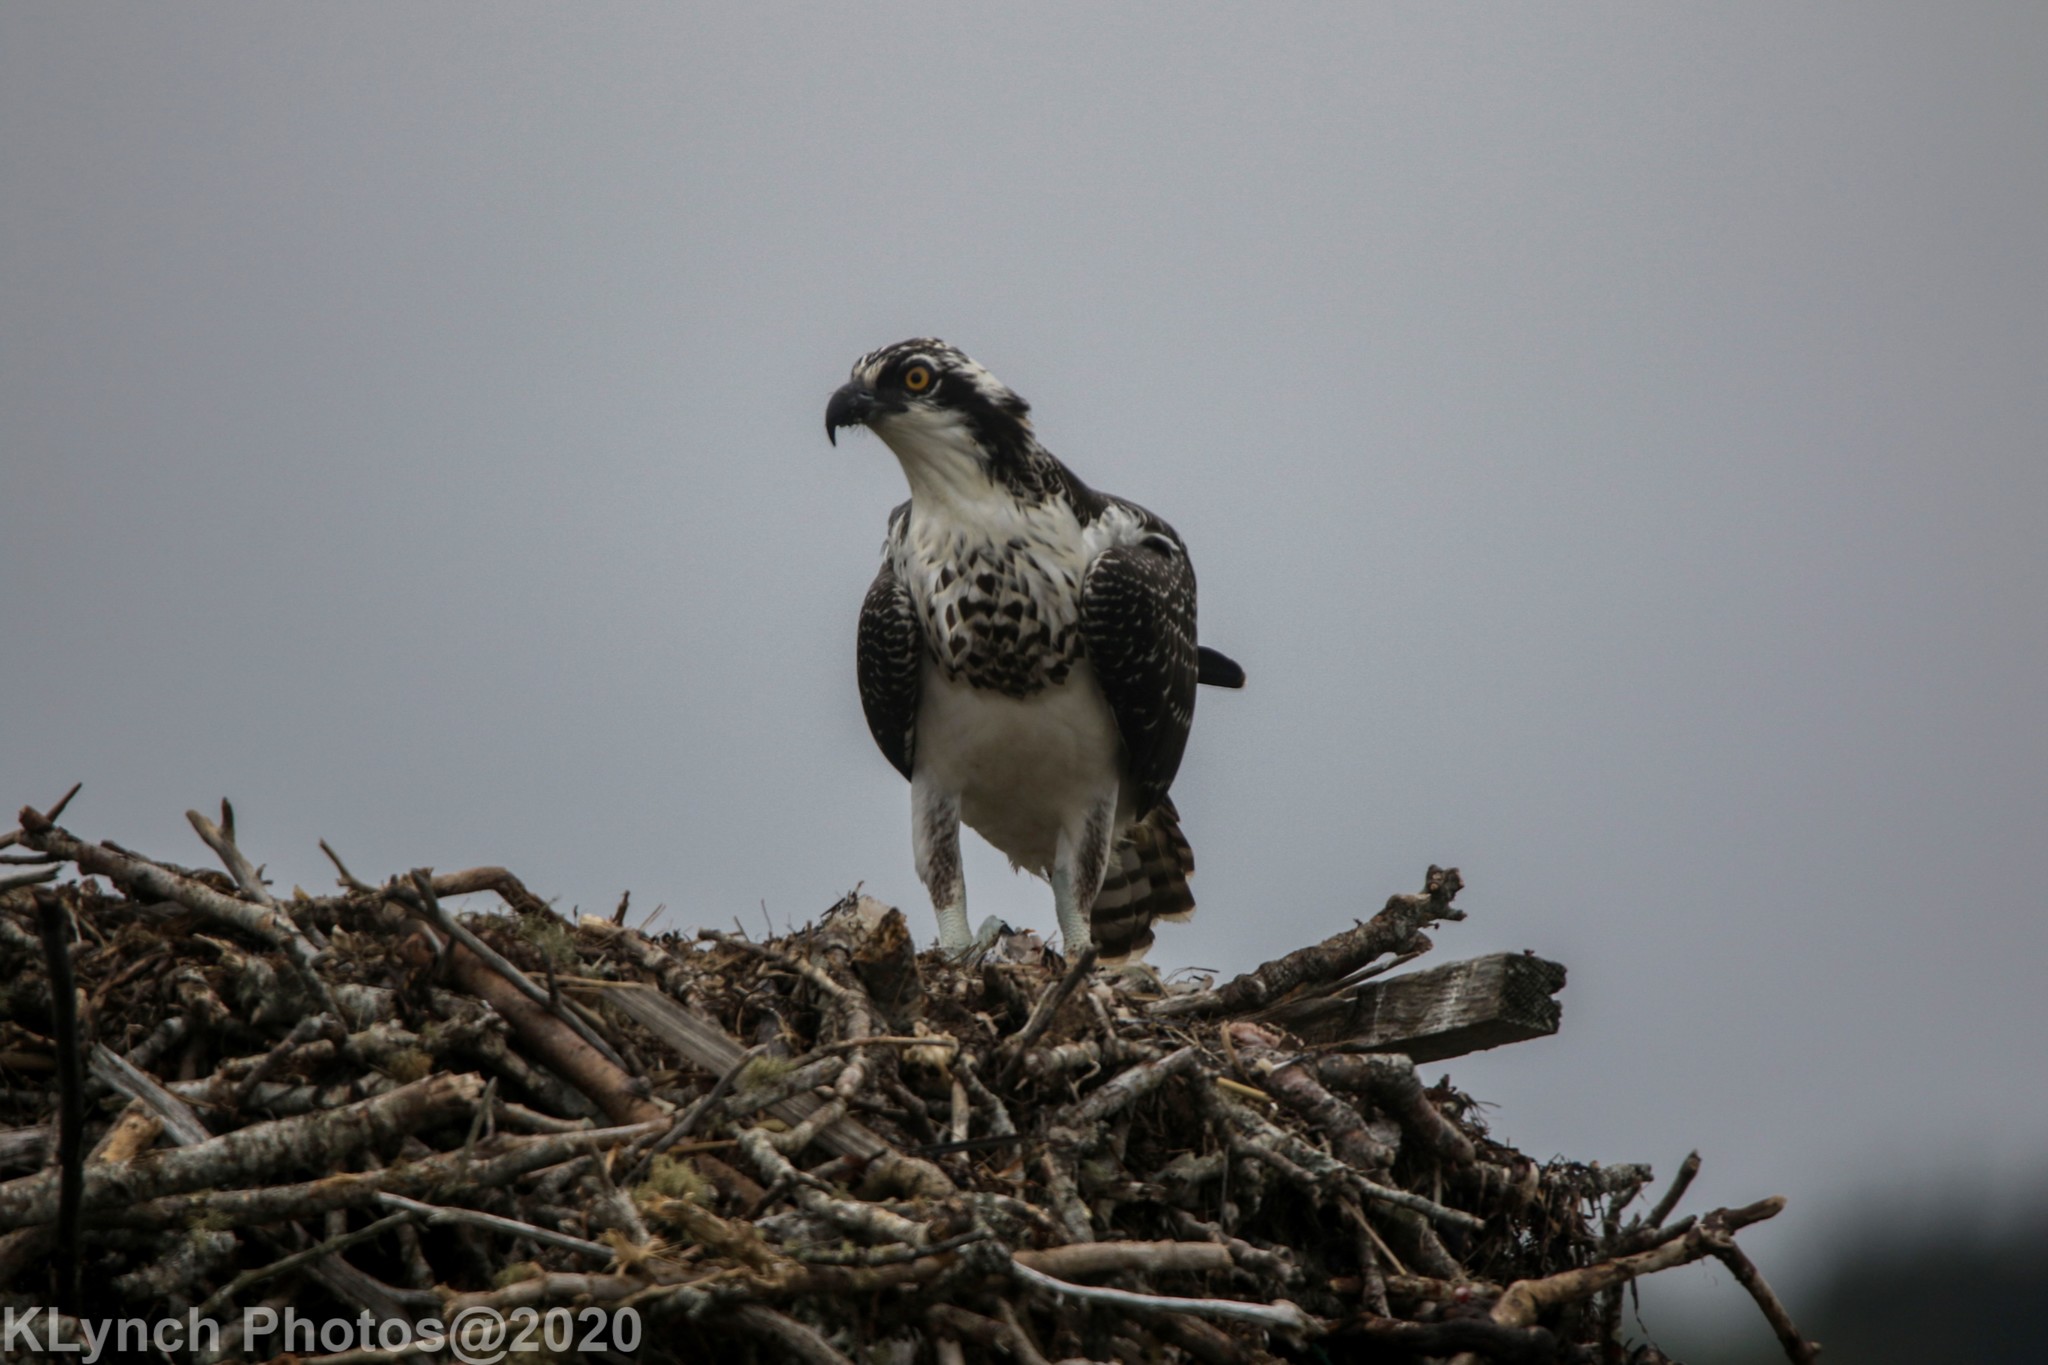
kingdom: Animalia
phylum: Chordata
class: Aves
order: Accipitriformes
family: Pandionidae
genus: Pandion
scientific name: Pandion haliaetus
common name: Osprey
